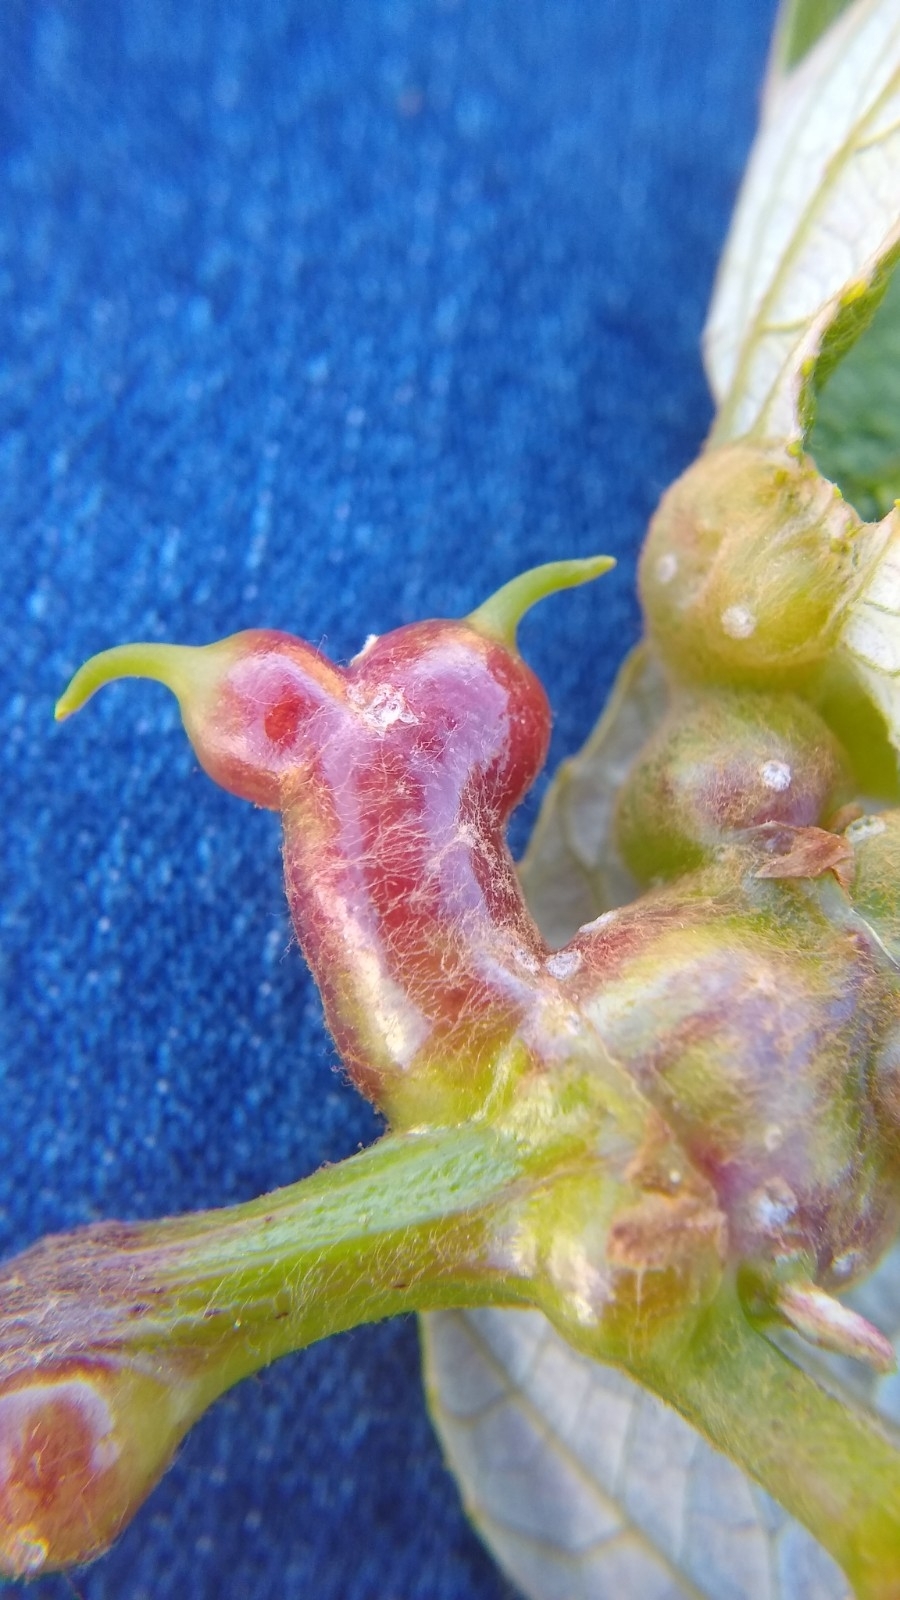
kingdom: Animalia
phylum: Arthropoda
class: Insecta
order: Diptera
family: Cecidomyiidae
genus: Vitisiella
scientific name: Vitisiella brevicauda
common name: Grape tumid gallmaker midge
